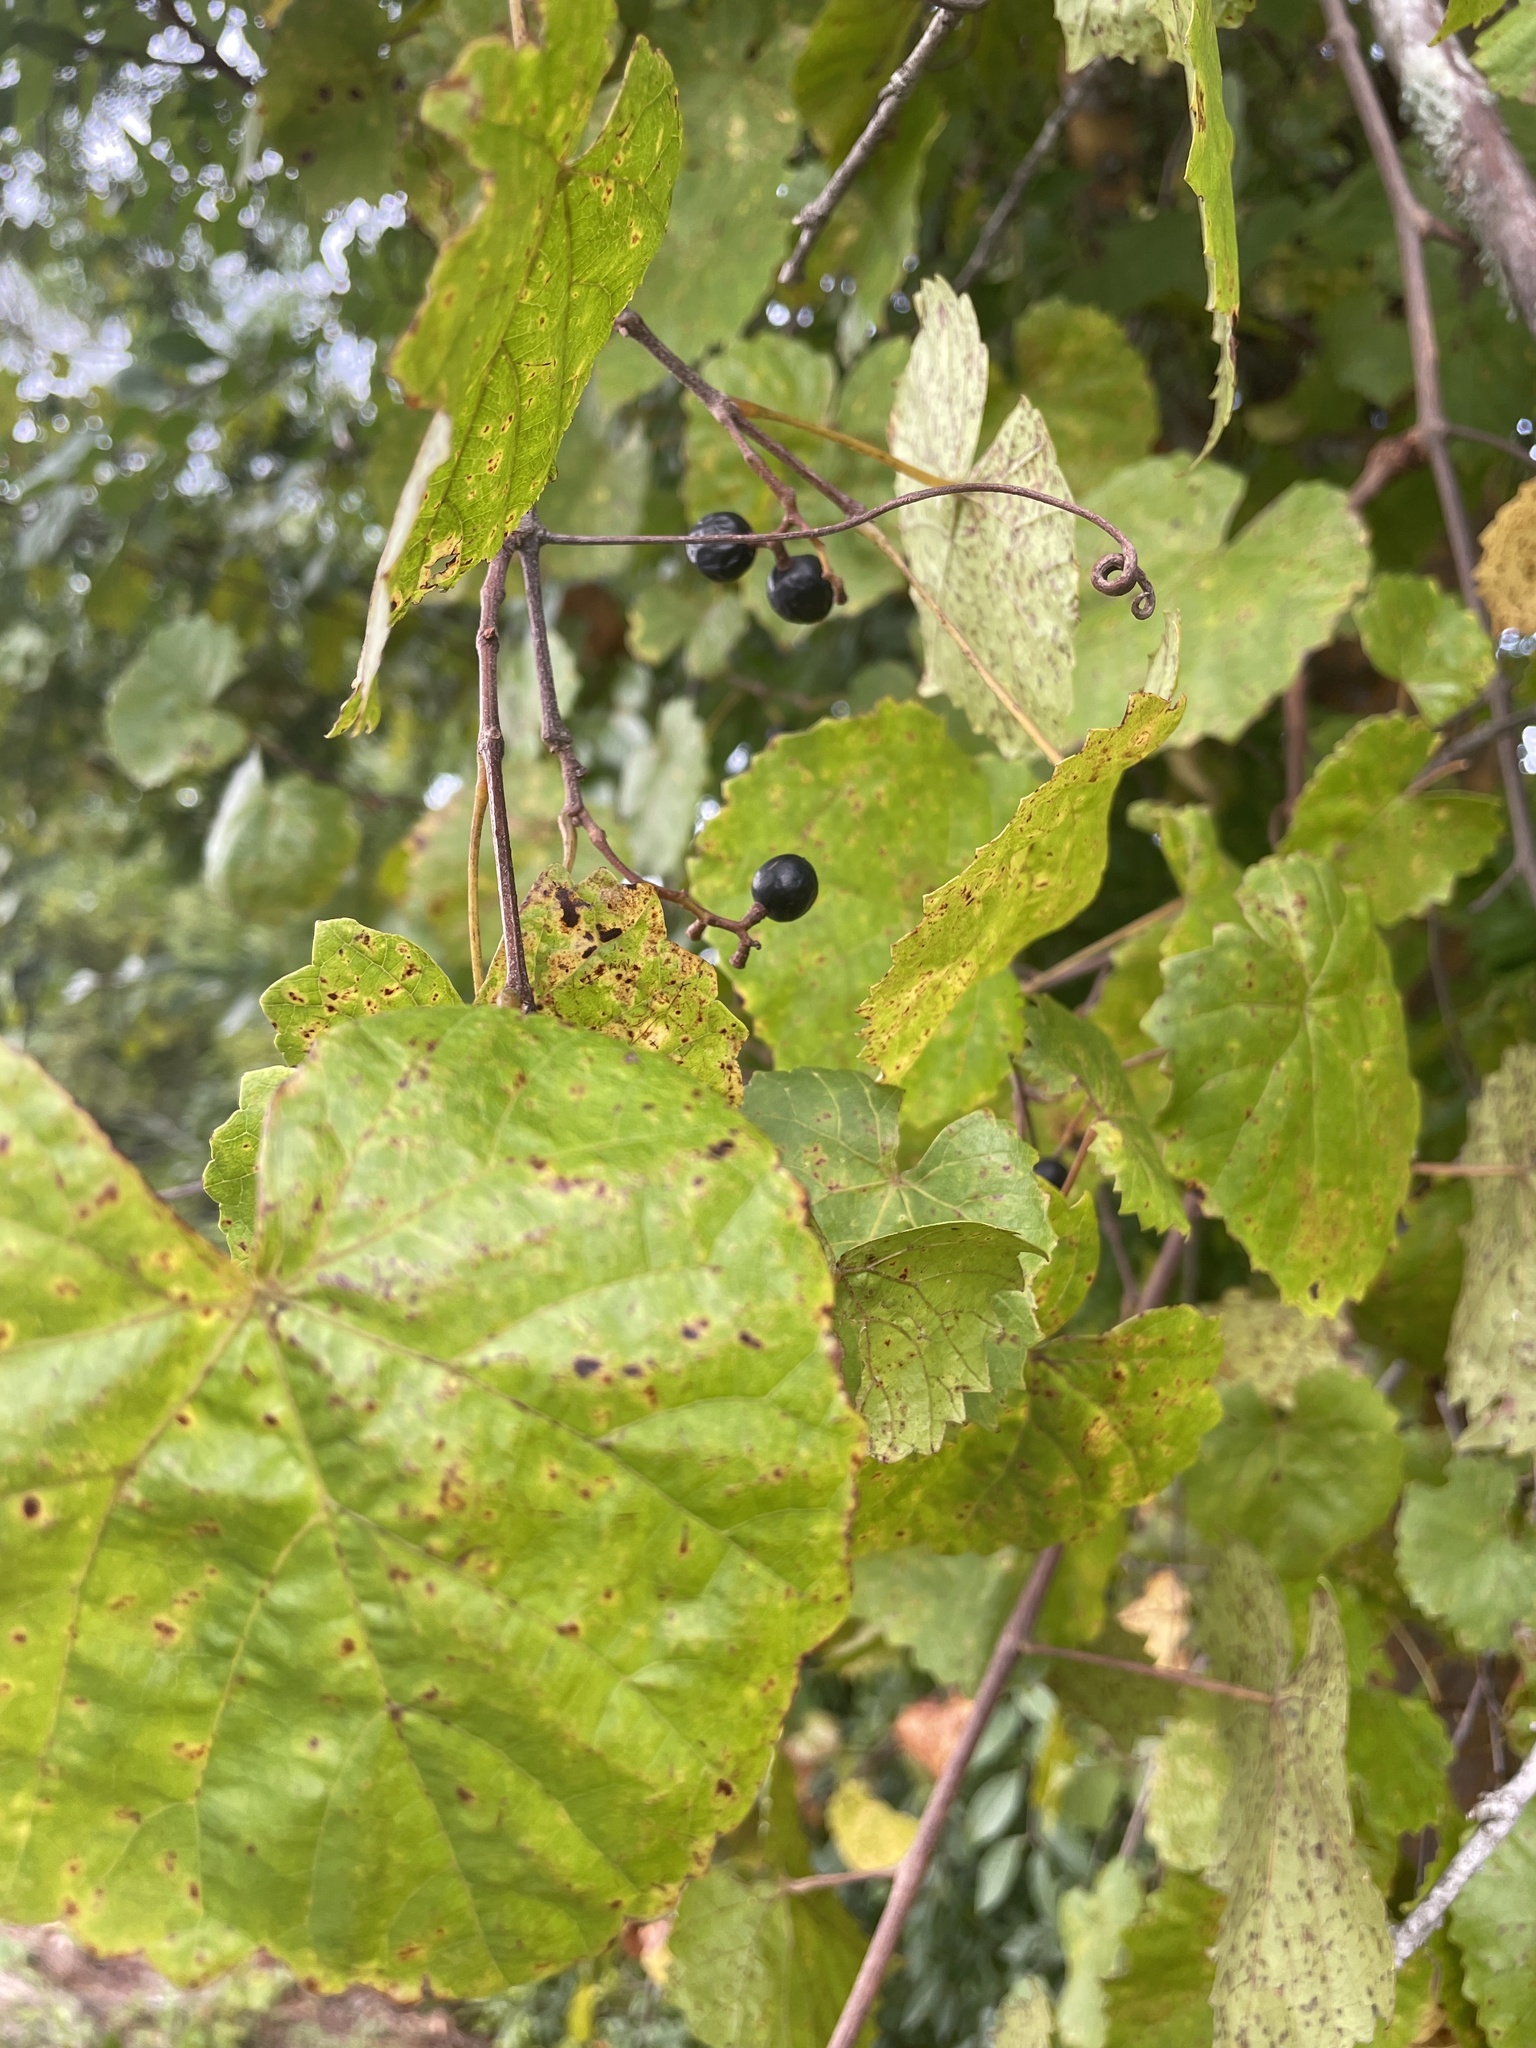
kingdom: Plantae
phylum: Tracheophyta
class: Magnoliopsida
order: Vitales
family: Vitaceae
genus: Vitis
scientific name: Vitis rotundifolia
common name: Muscadine grape
